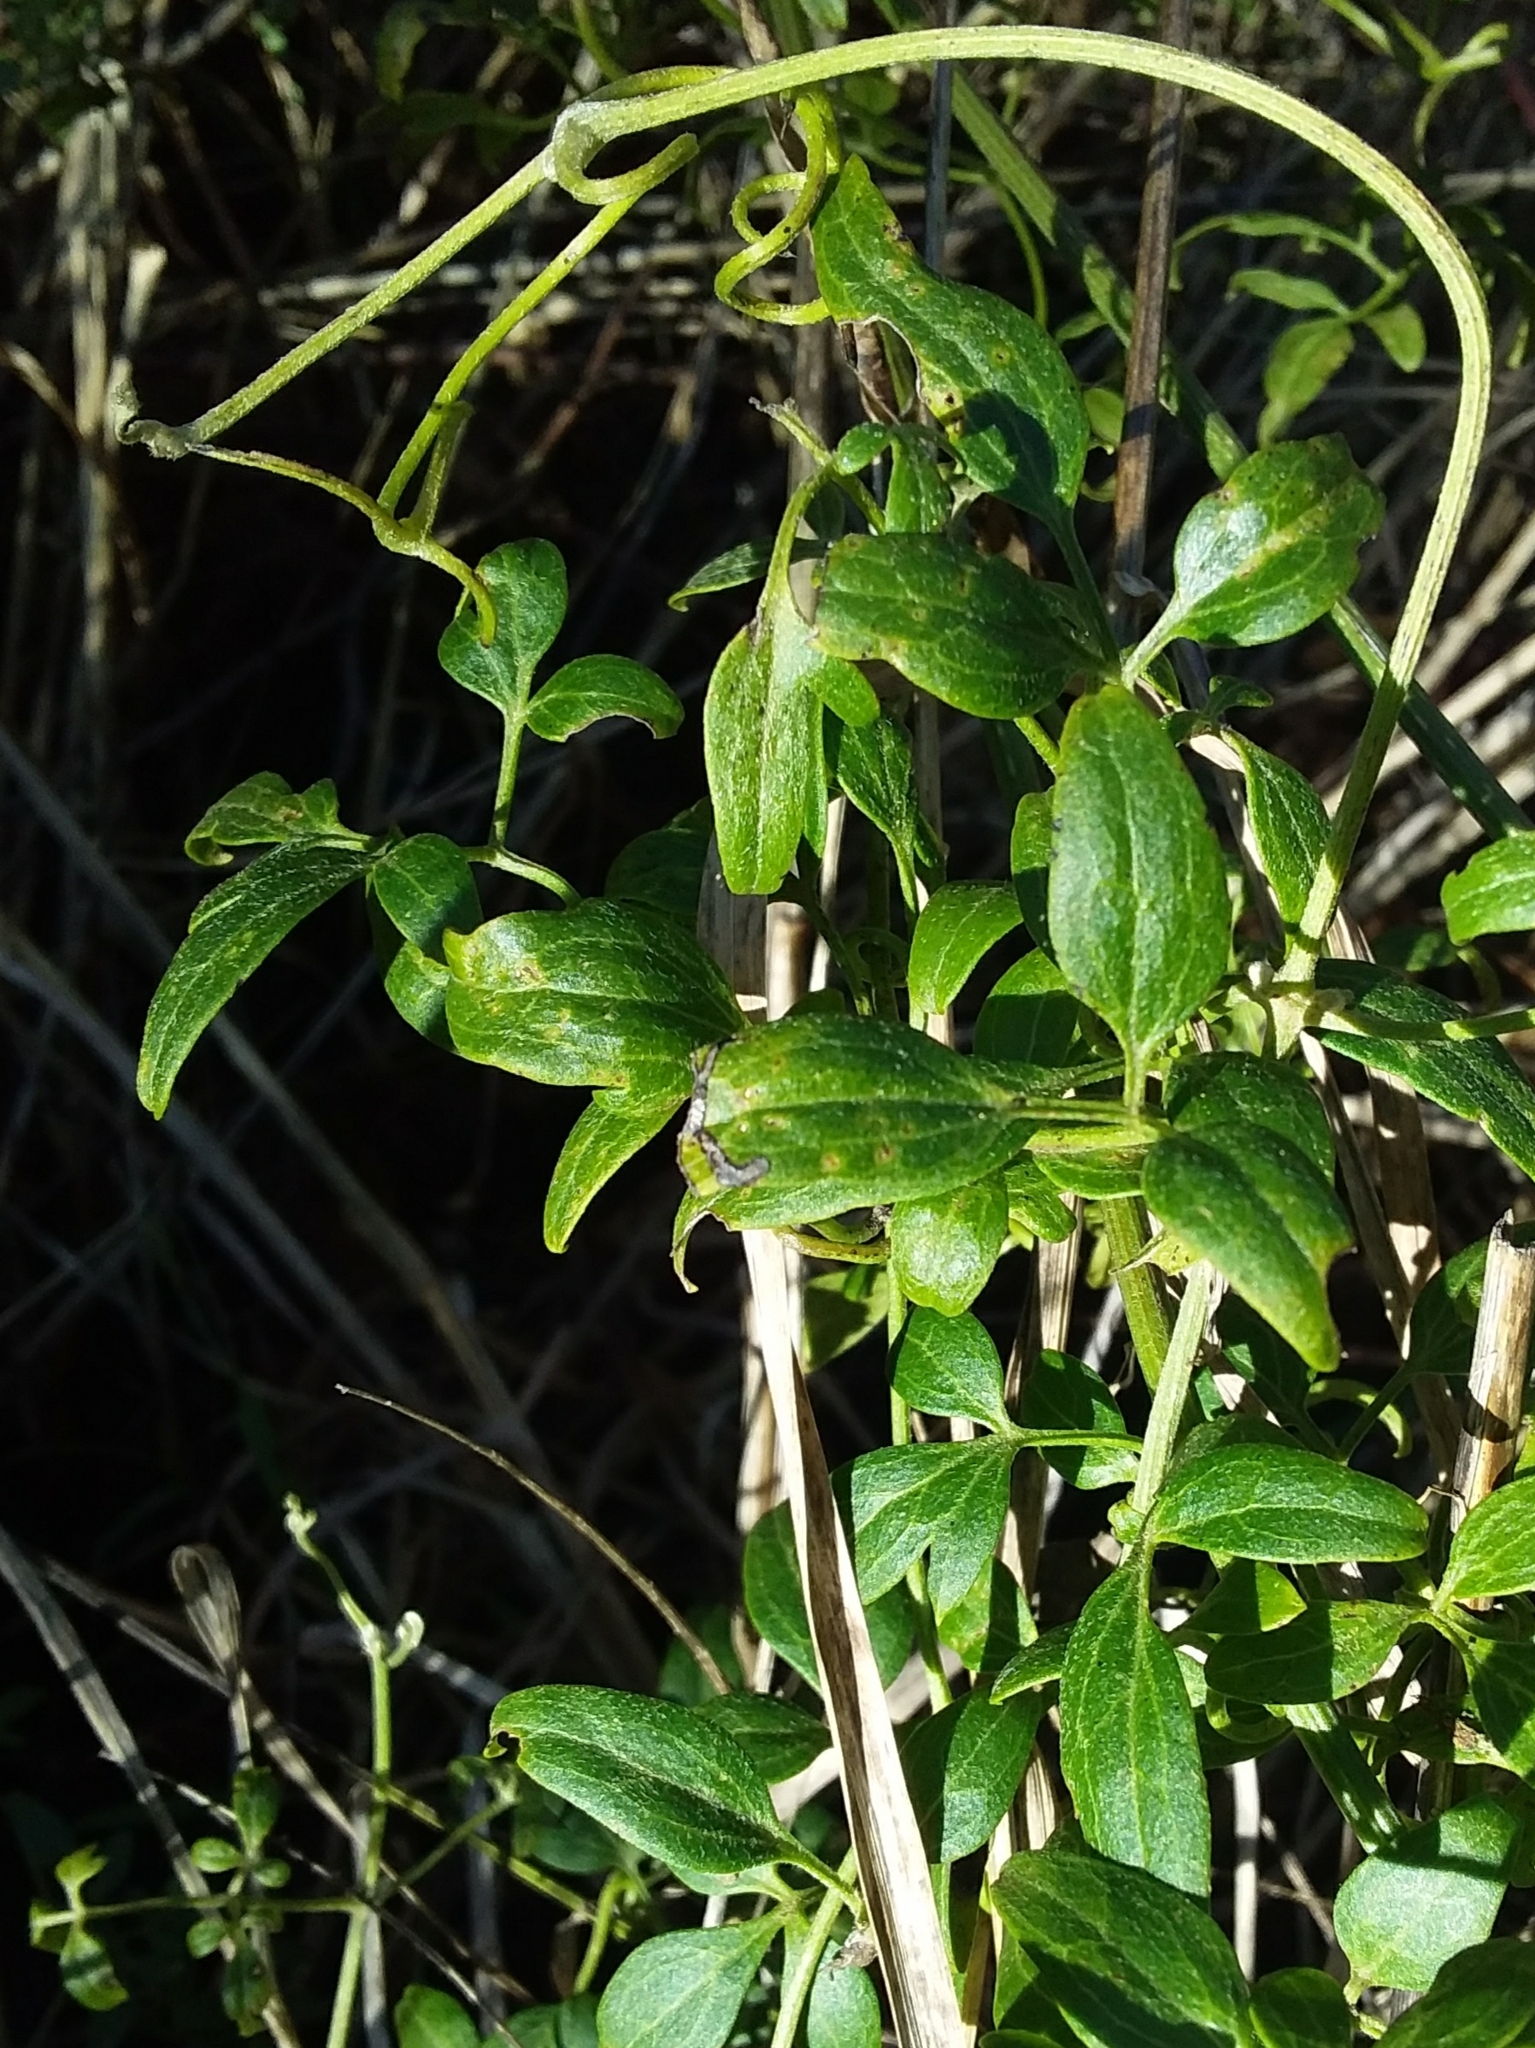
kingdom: Plantae
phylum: Tracheophyta
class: Magnoliopsida
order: Ranunculales
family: Ranunculaceae
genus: Clematis
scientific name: Clematis microphylla
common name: Headachevine
